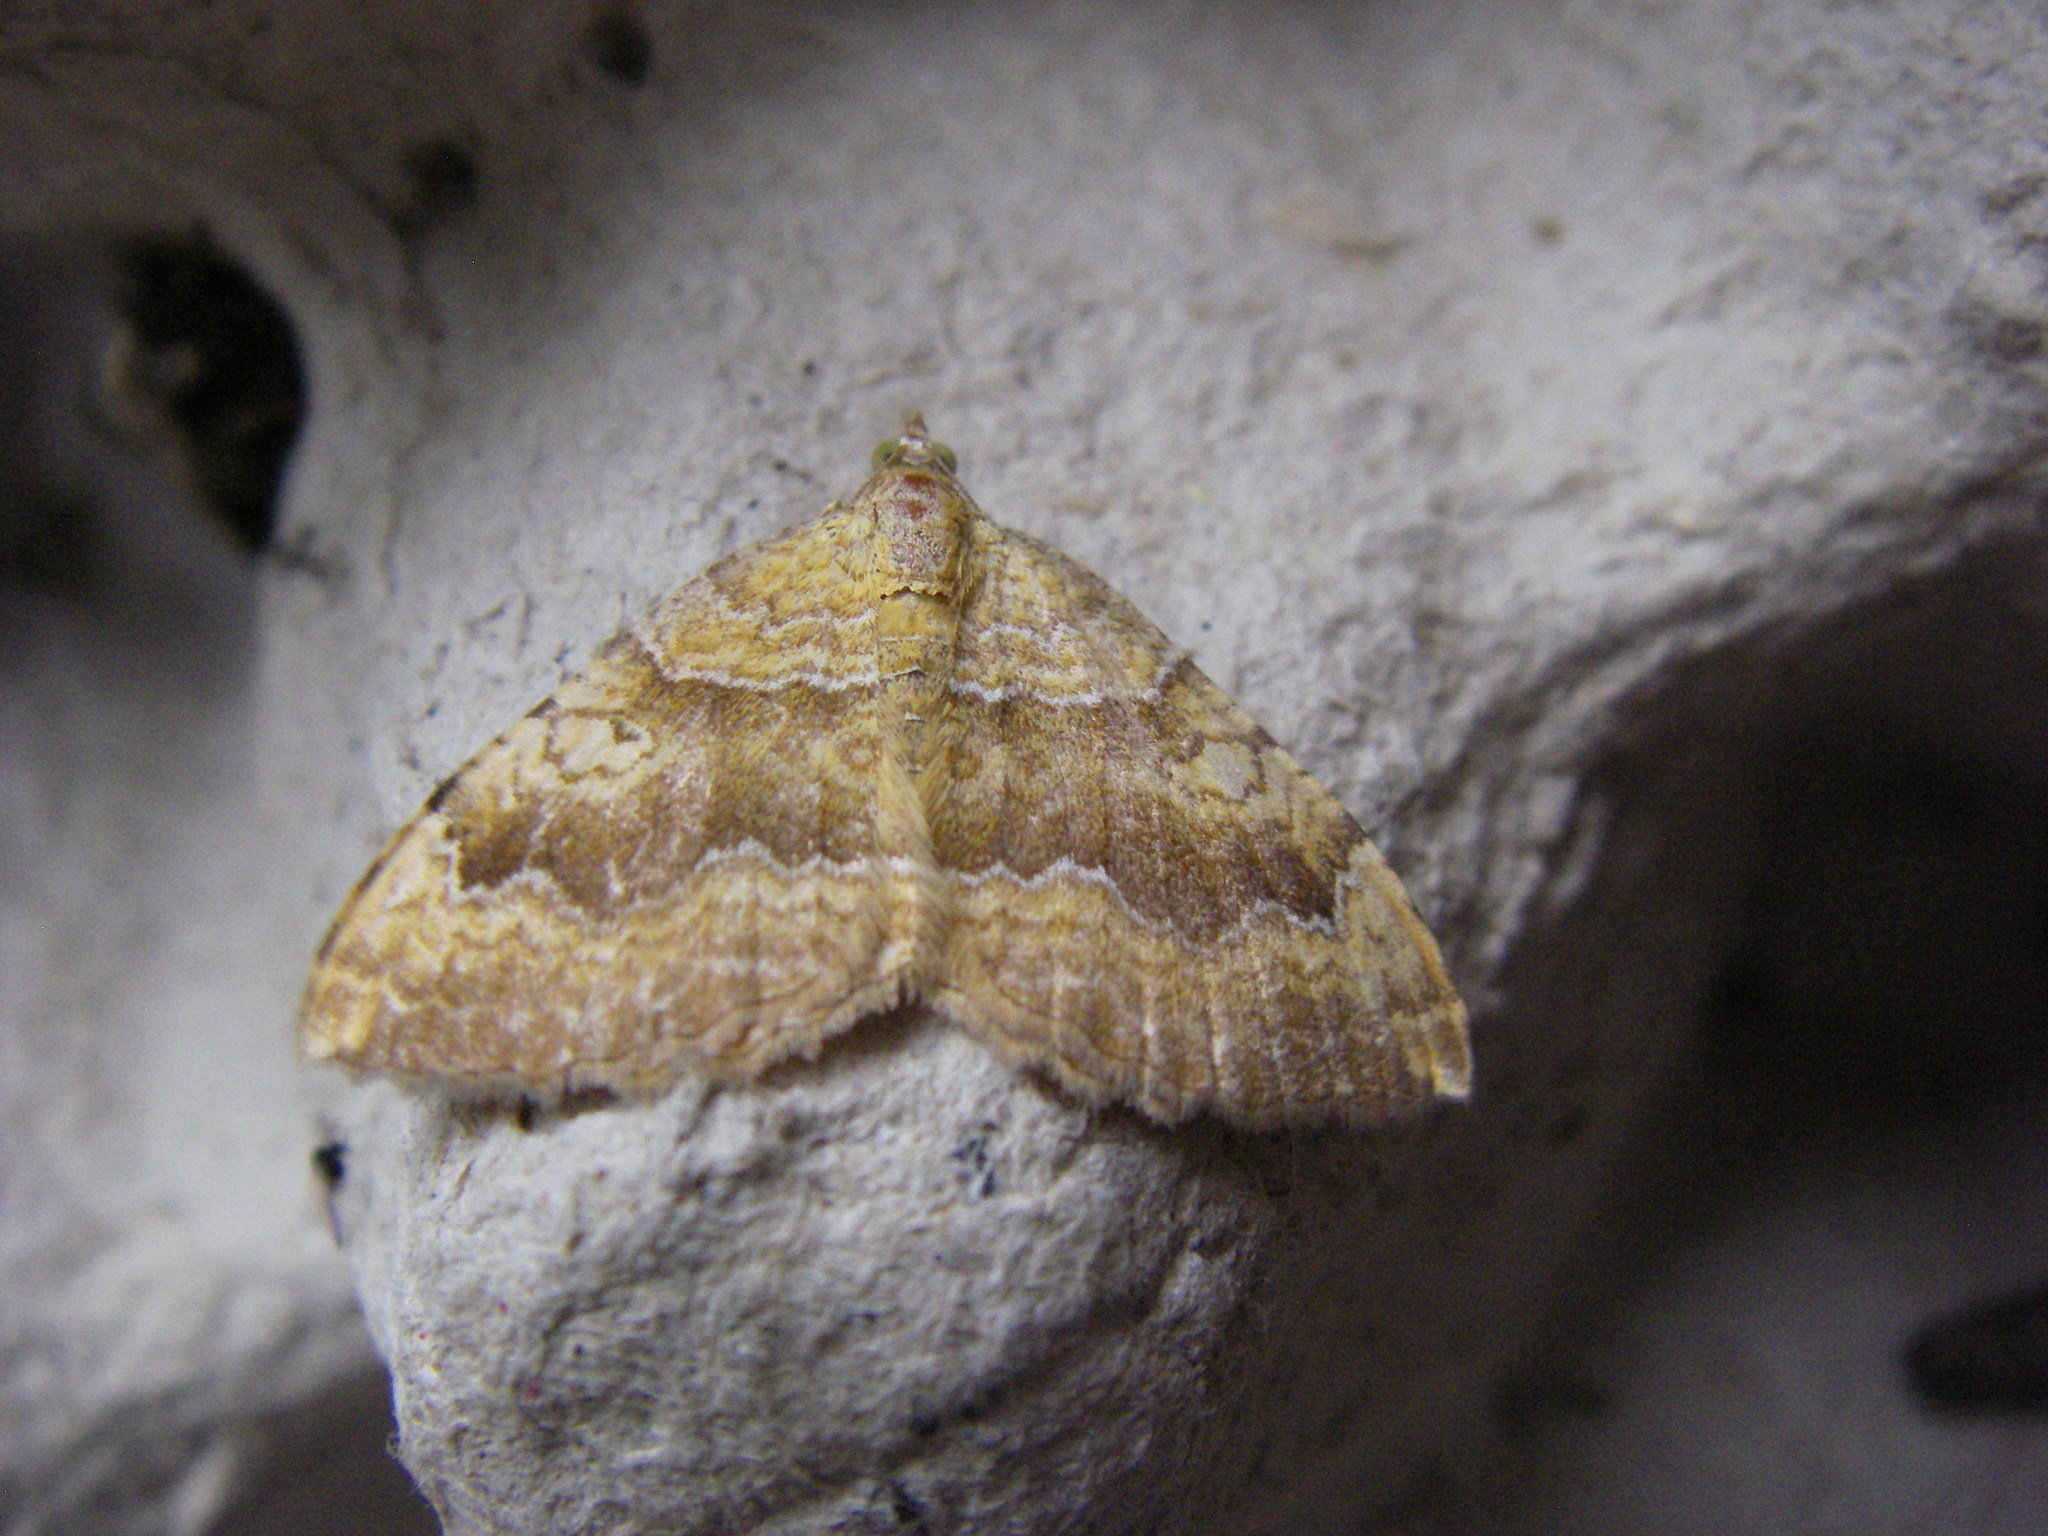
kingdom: Animalia
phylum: Arthropoda
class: Insecta
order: Lepidoptera
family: Geometridae
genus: Camptogramma
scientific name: Camptogramma bilineata
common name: Yellow shell
